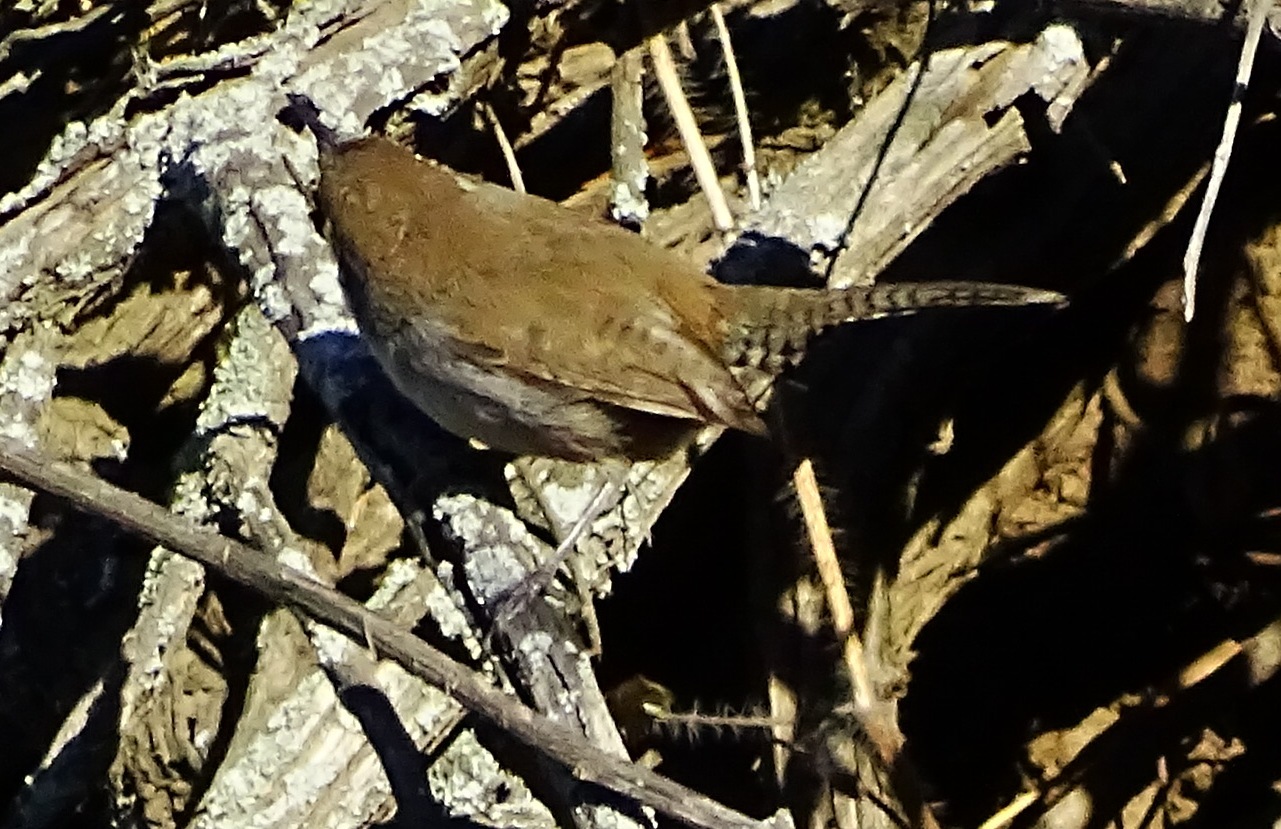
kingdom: Animalia
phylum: Chordata
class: Aves
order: Passeriformes
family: Troglodytidae
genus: Thryomanes
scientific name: Thryomanes bewickii
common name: Bewick's wren
